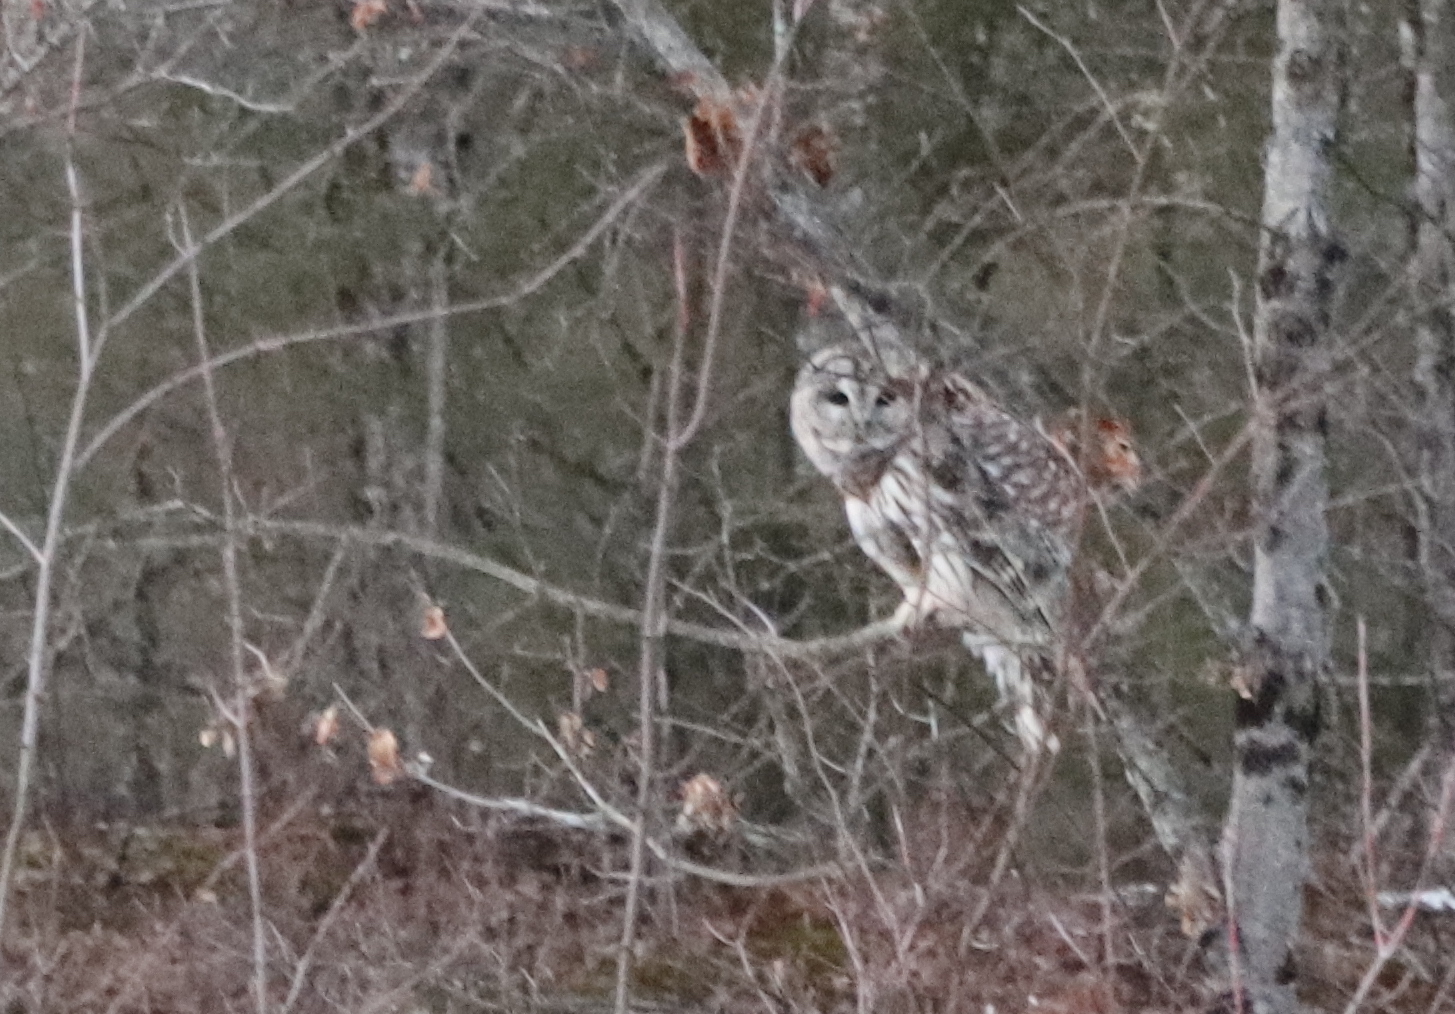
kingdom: Animalia
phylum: Chordata
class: Aves
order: Strigiformes
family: Strigidae
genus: Strix
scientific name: Strix varia
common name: Barred owl
